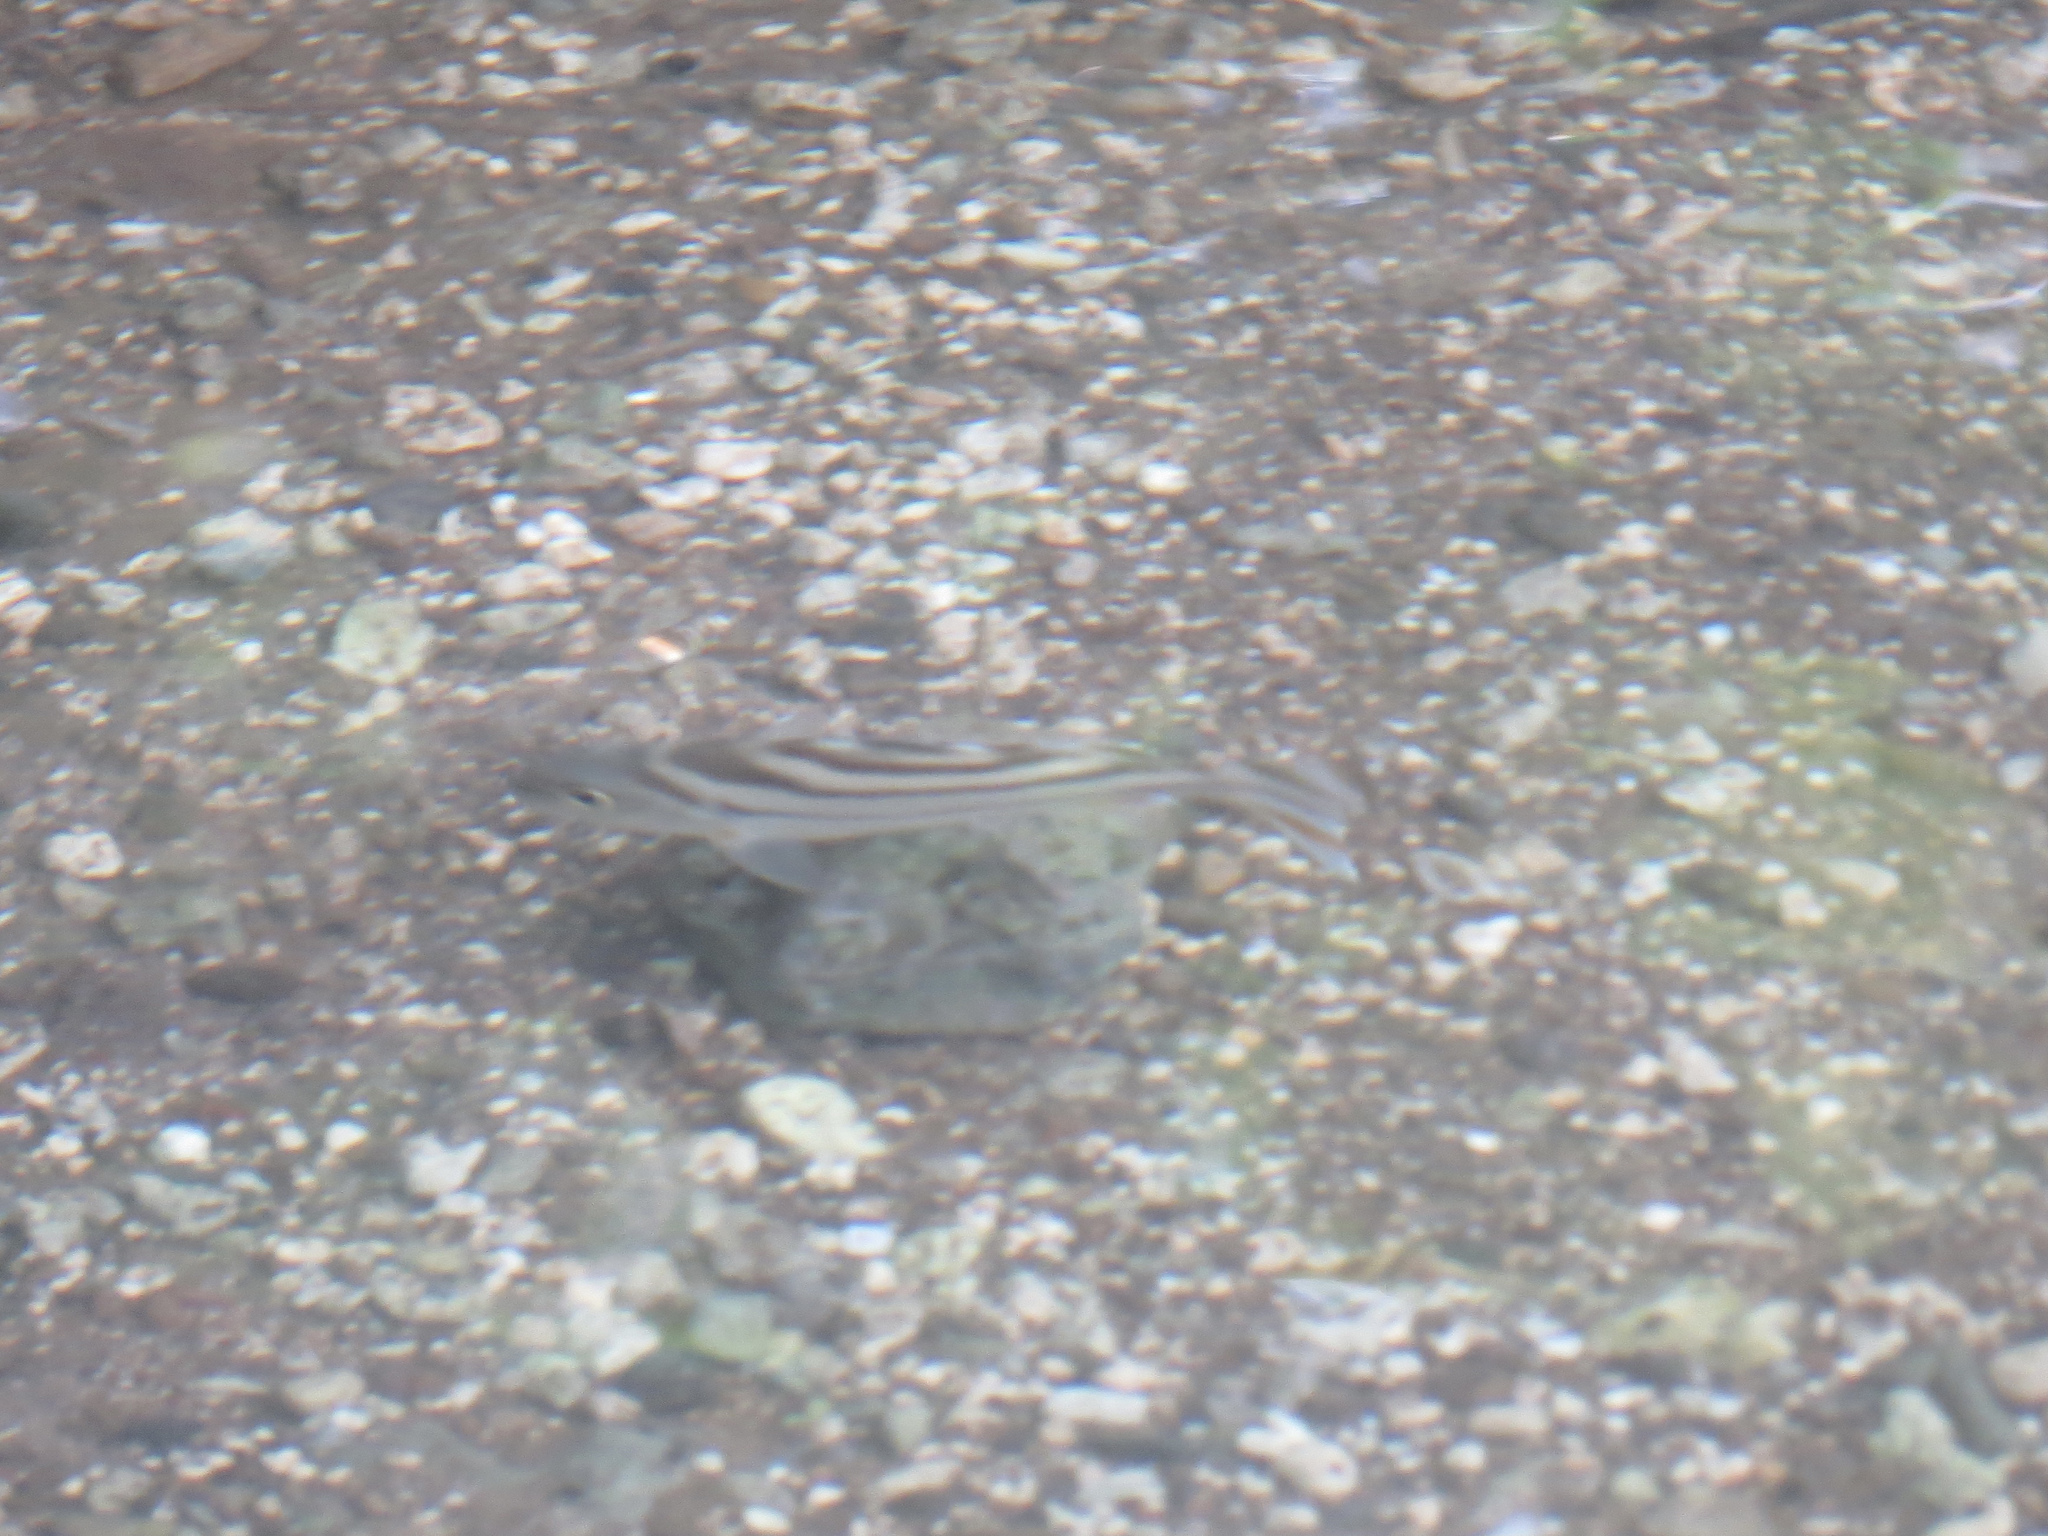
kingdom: Animalia
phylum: Chordata
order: Perciformes
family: Terapontidae
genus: Terapon
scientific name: Terapon jarbua
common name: Jarbua terapon
